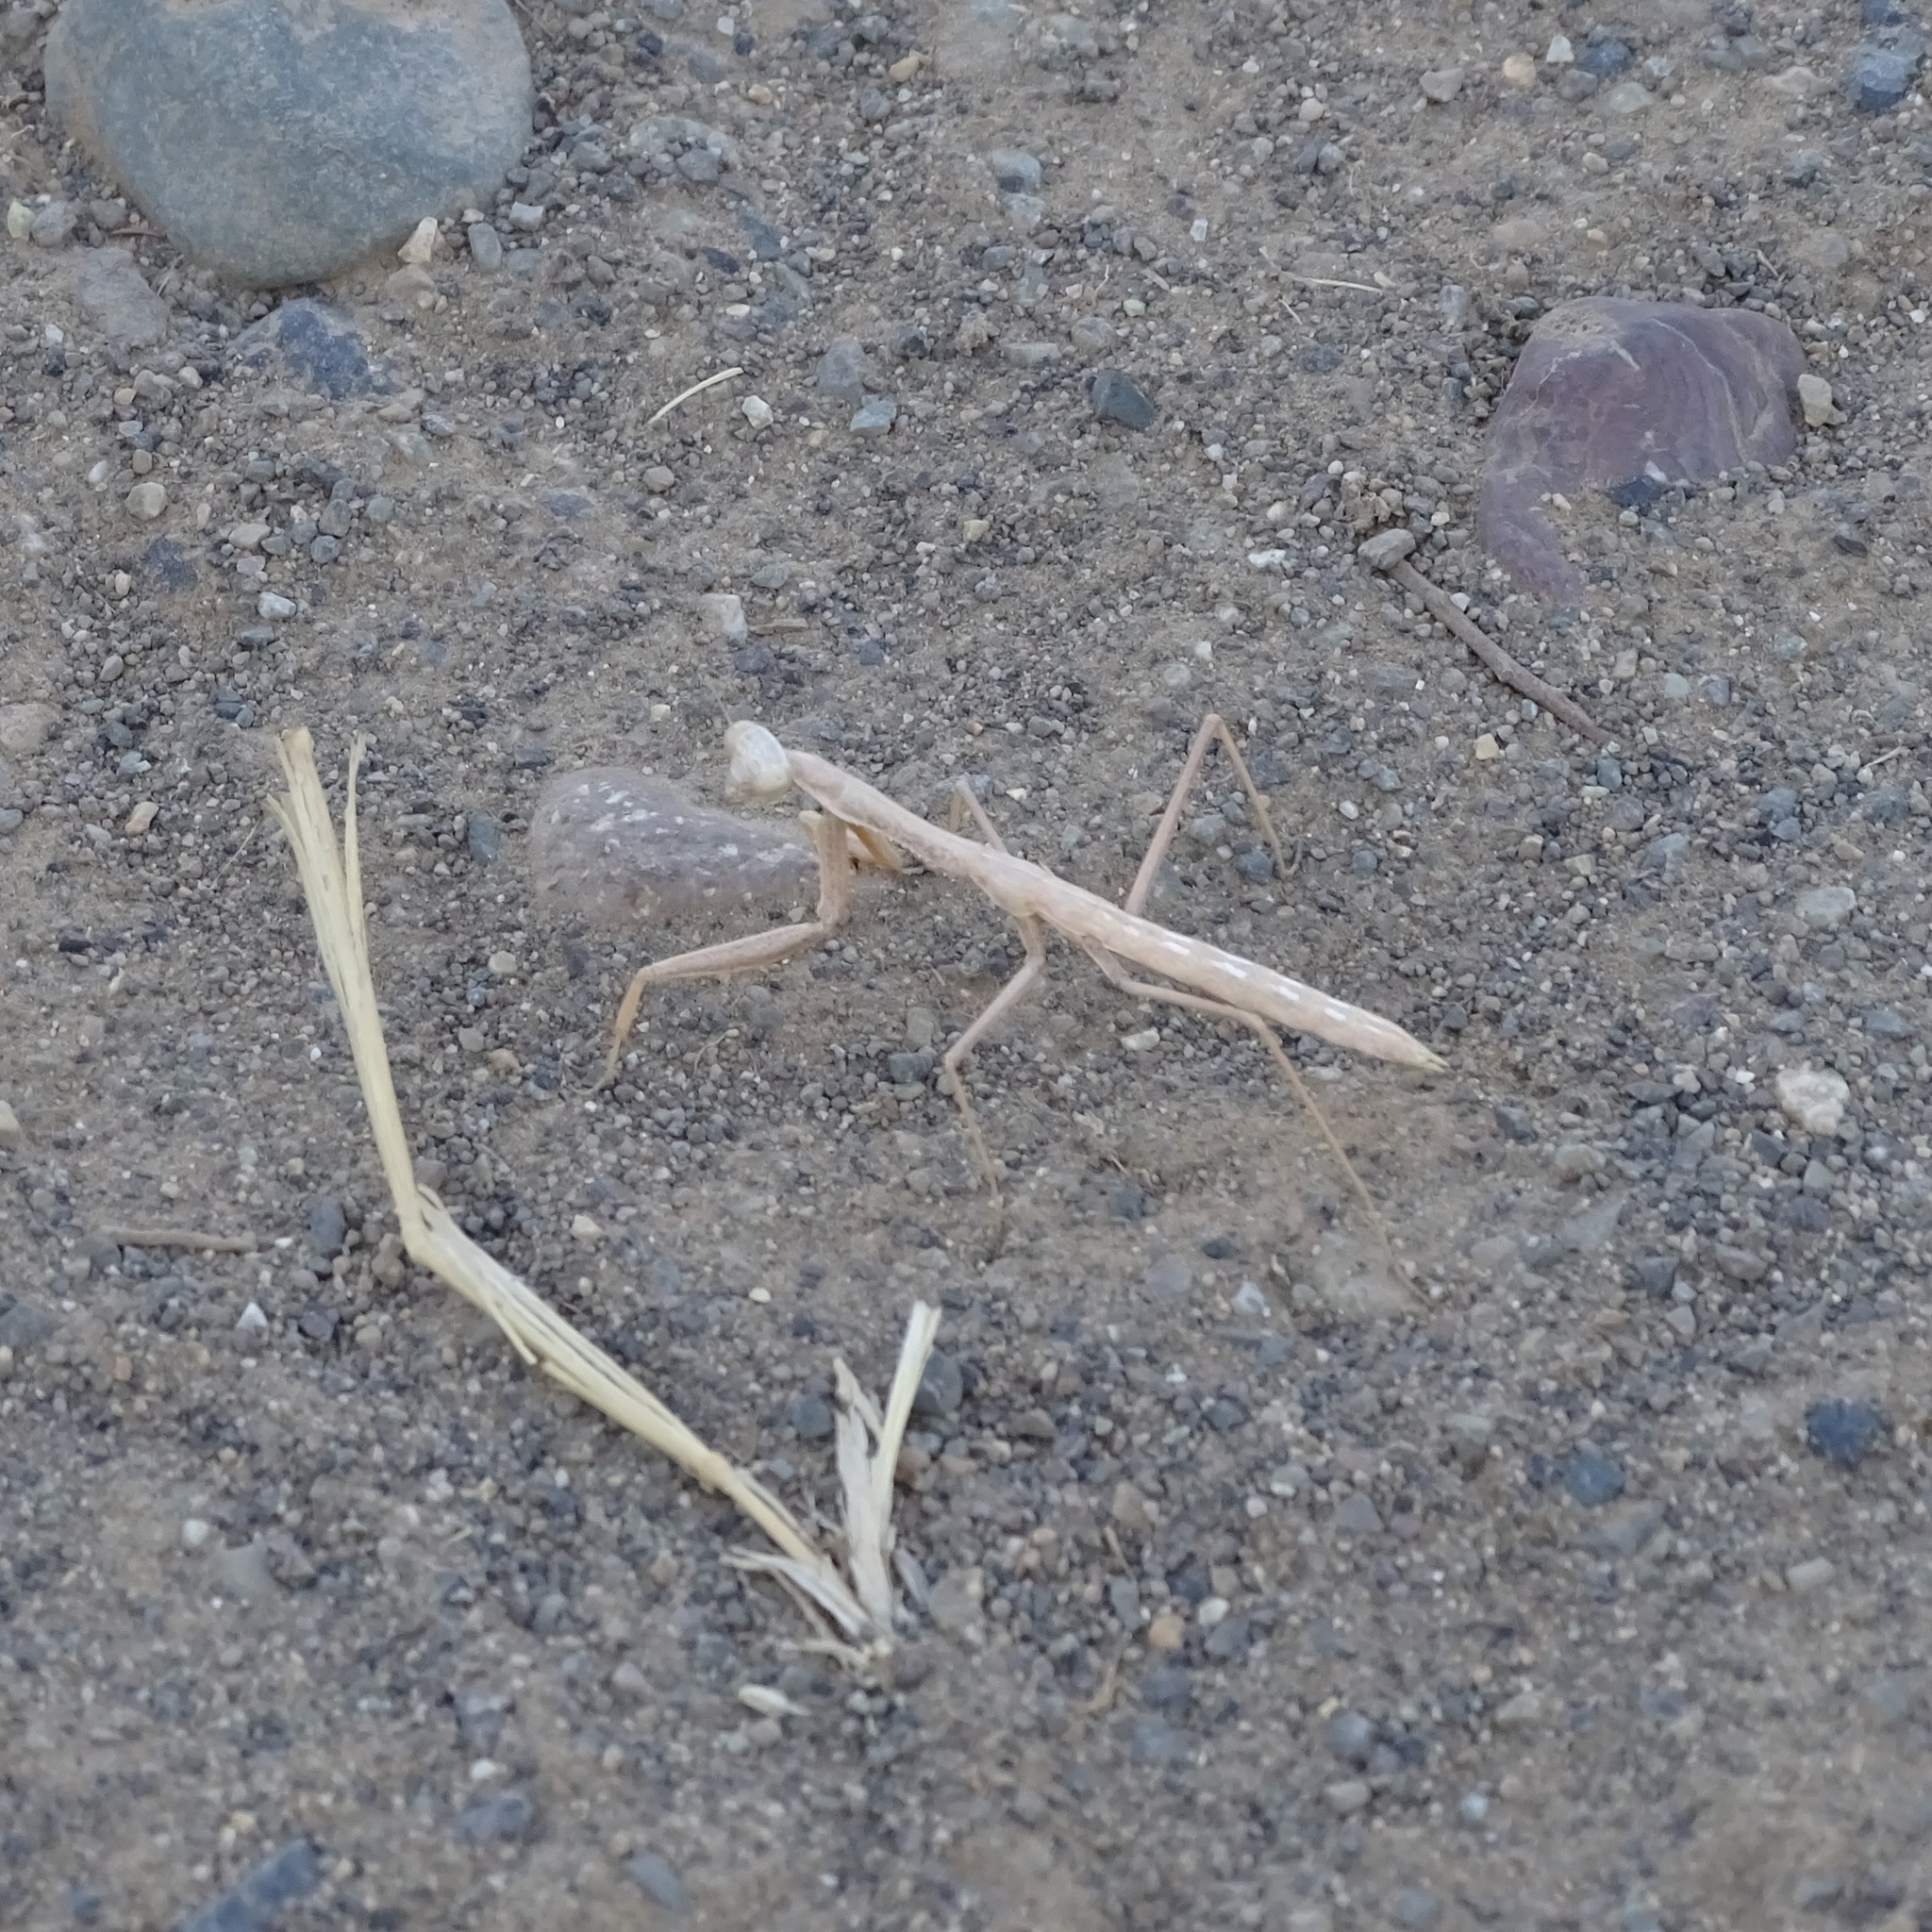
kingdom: Animalia
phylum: Arthropoda
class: Insecta
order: Mantodea
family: Coptopterygidae
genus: Coptopteryx
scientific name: Coptopteryx gayi
